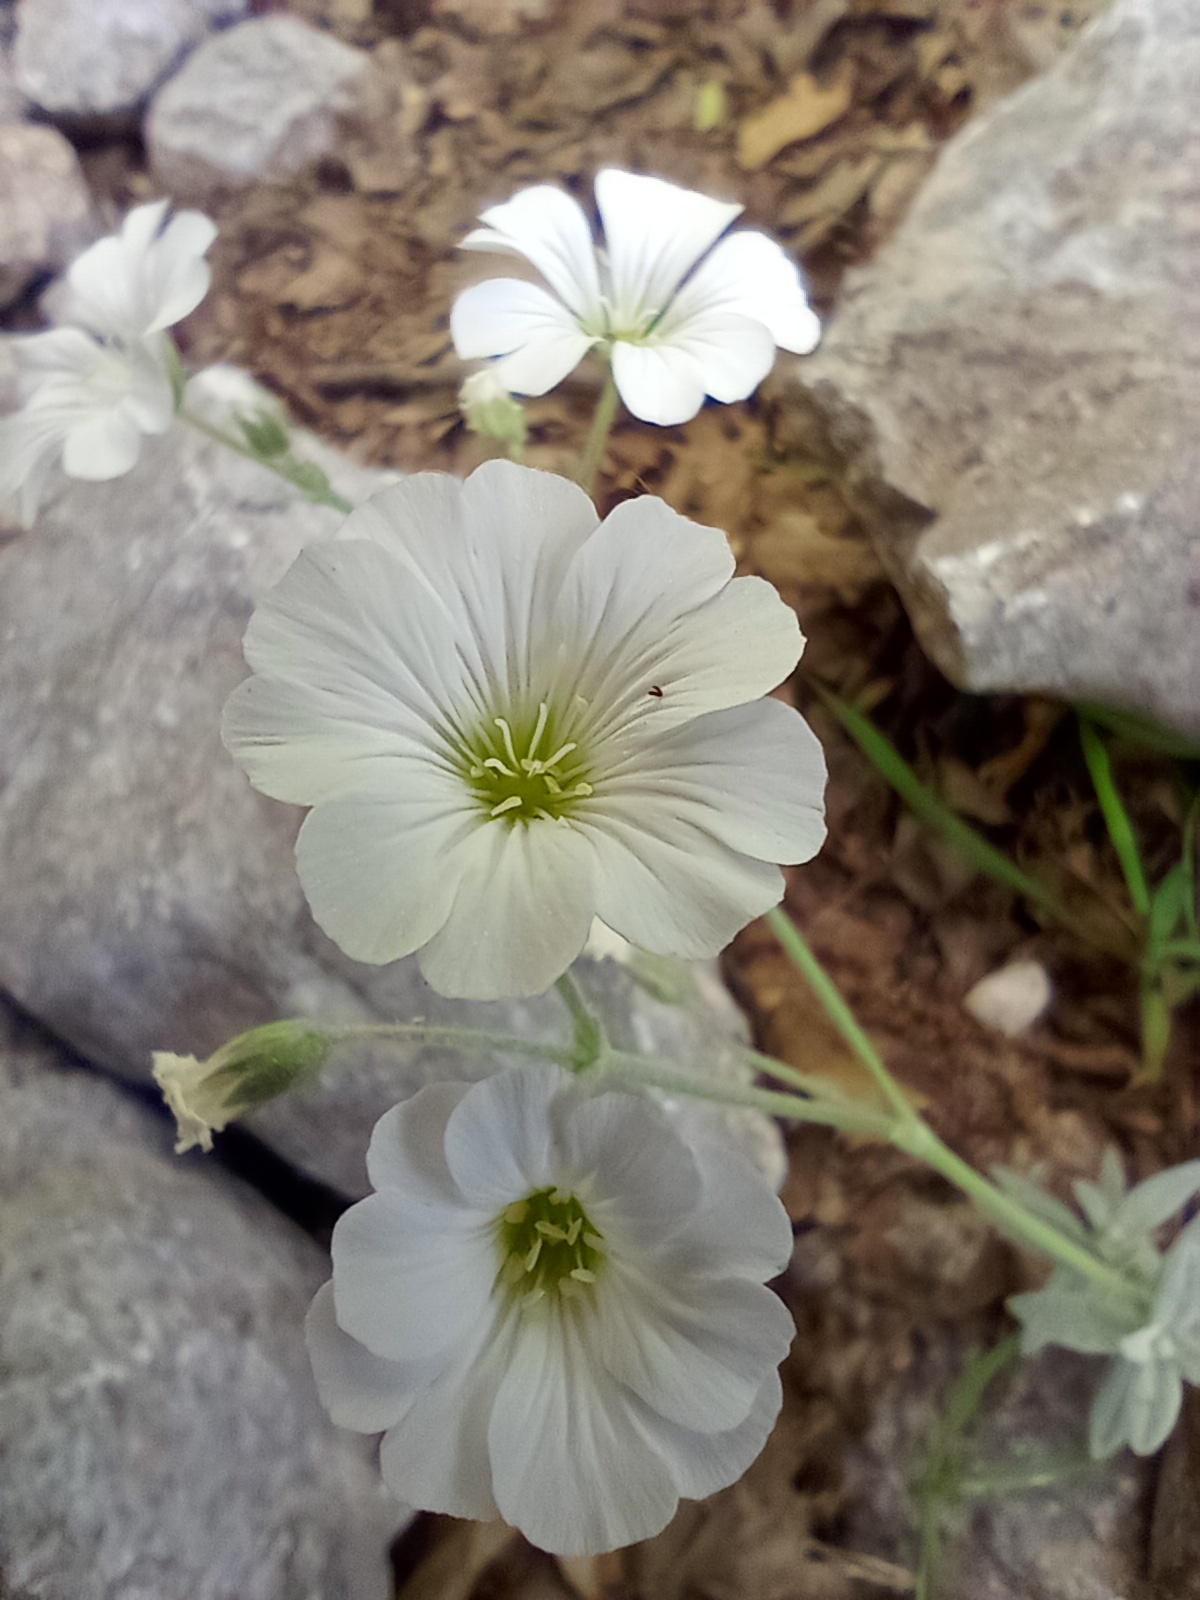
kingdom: Plantae
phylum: Tracheophyta
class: Magnoliopsida
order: Caryophyllales
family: Caryophyllaceae
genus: Cerastium
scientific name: Cerastium tomentosum
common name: Snow-in-summer
